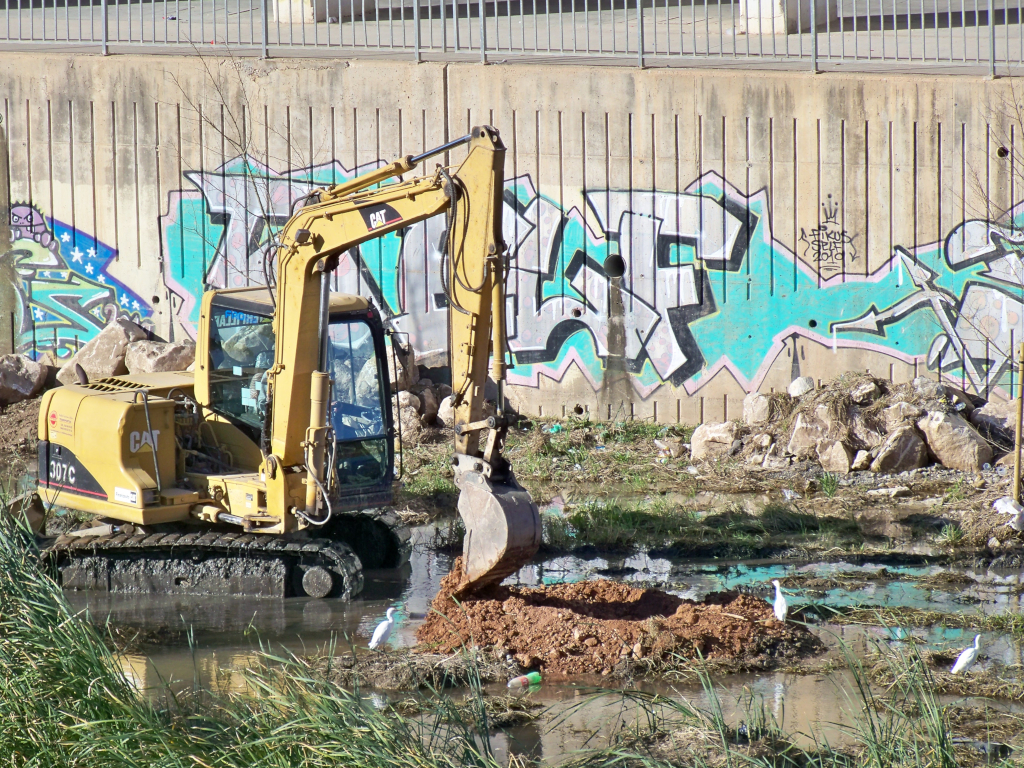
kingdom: Animalia
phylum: Chordata
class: Aves
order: Pelecaniformes
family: Ardeidae
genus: Bubulcus
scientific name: Bubulcus ibis
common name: Cattle egret
